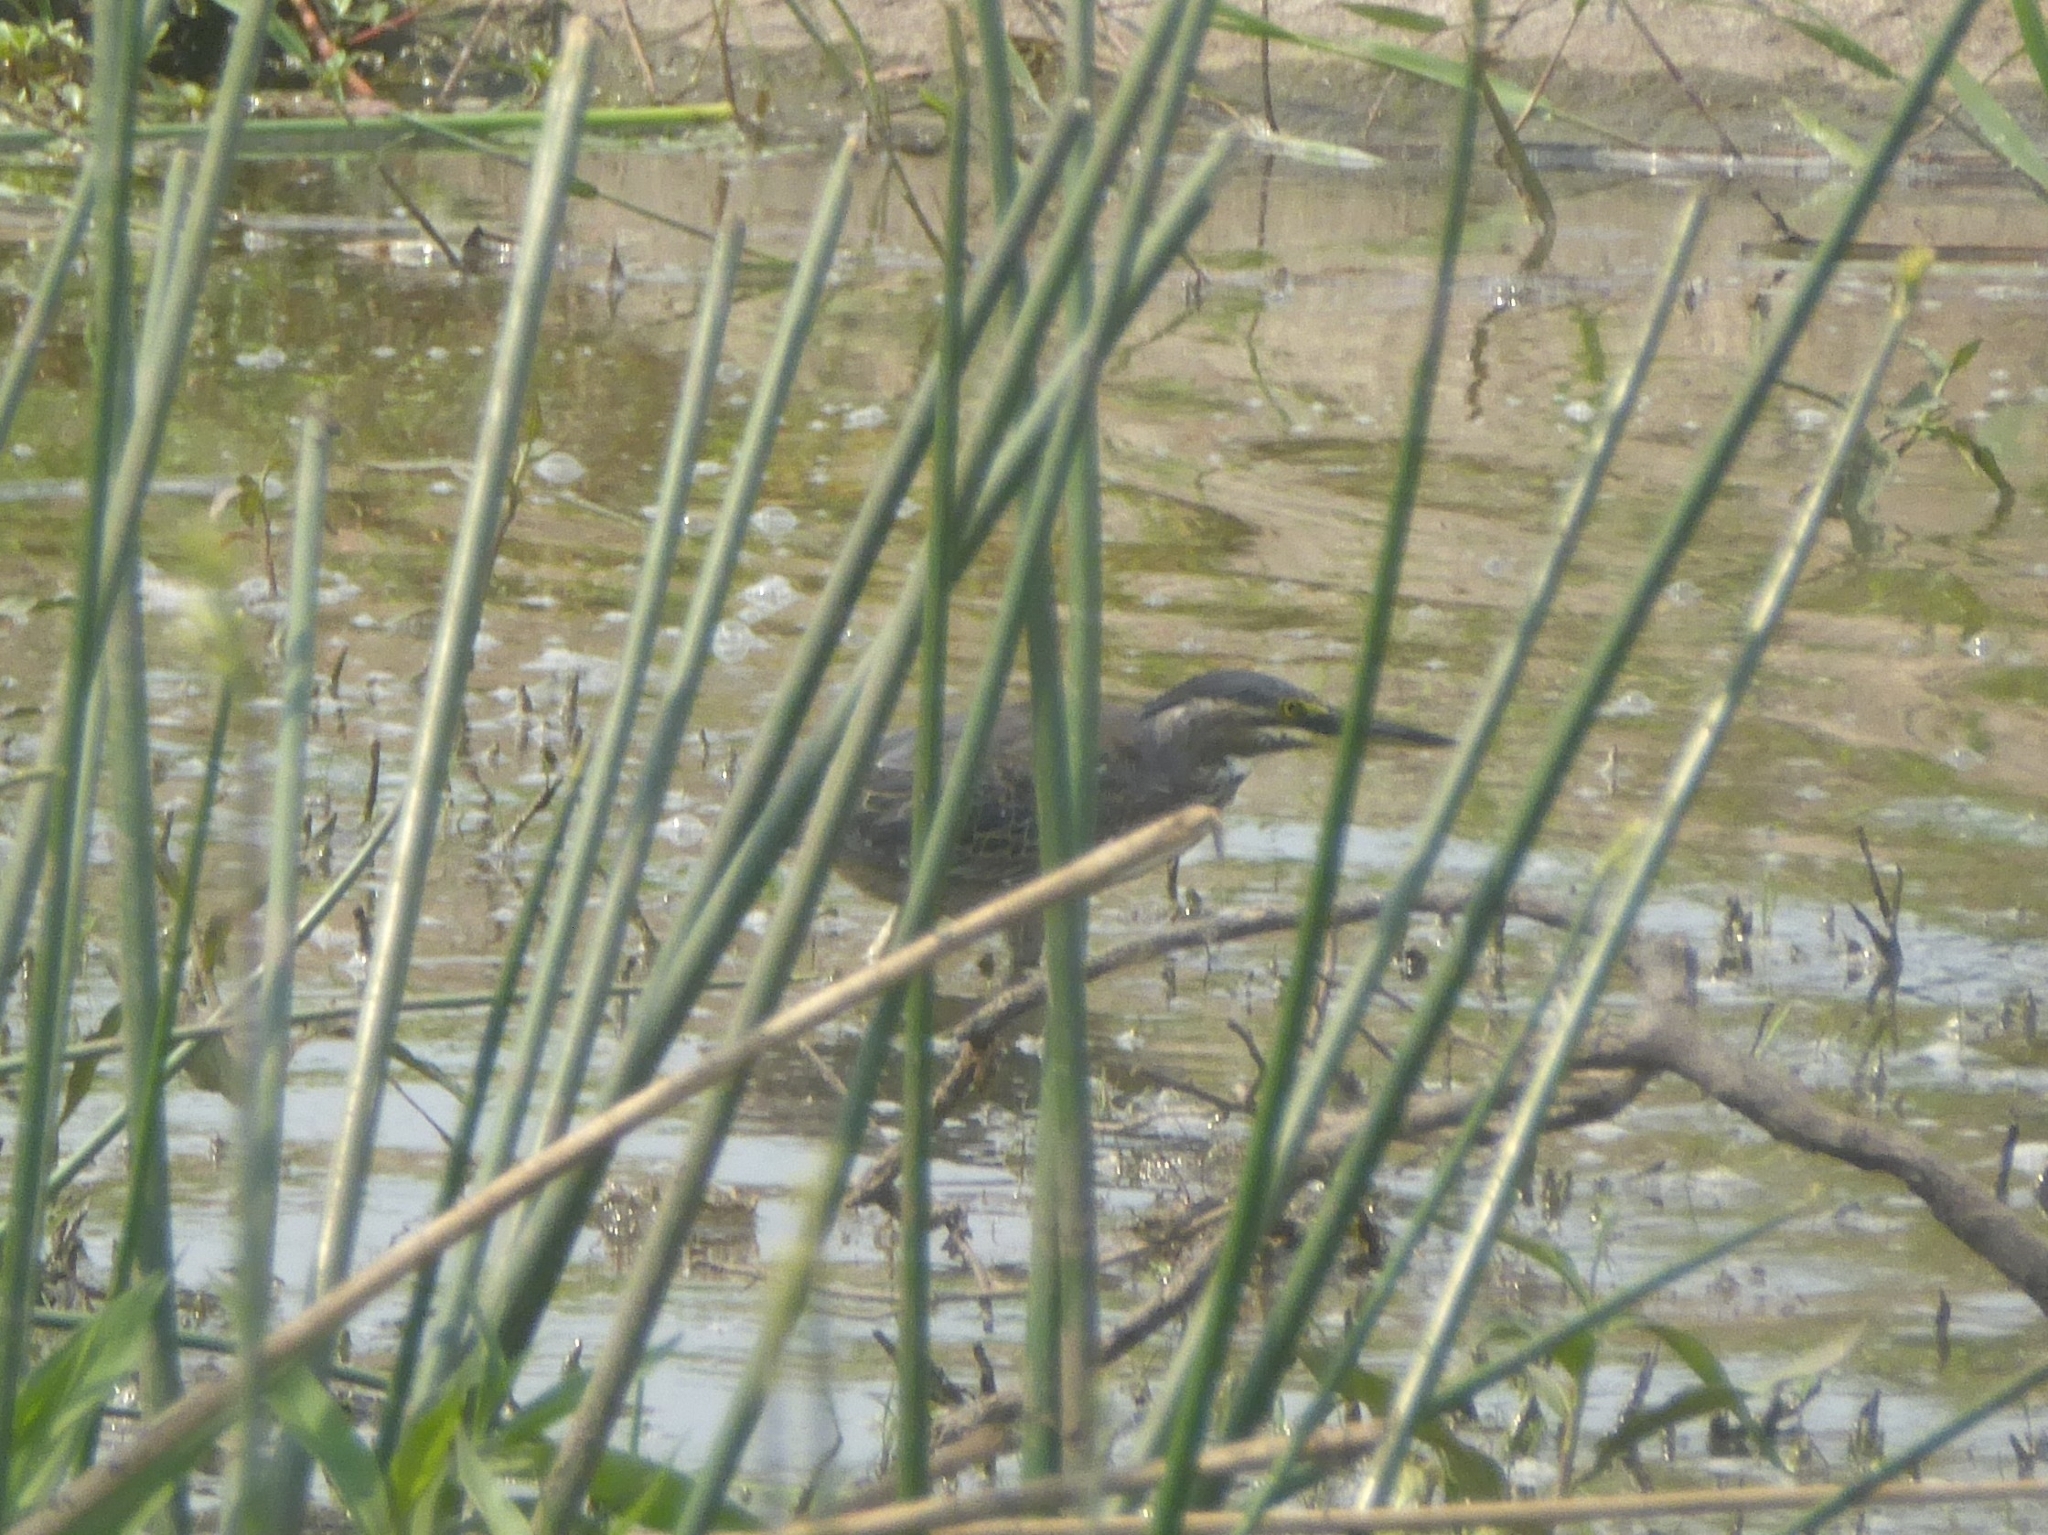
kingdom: Animalia
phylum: Chordata
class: Aves
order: Pelecaniformes
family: Ardeidae
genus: Butorides
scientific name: Butorides striata
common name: Striated heron
